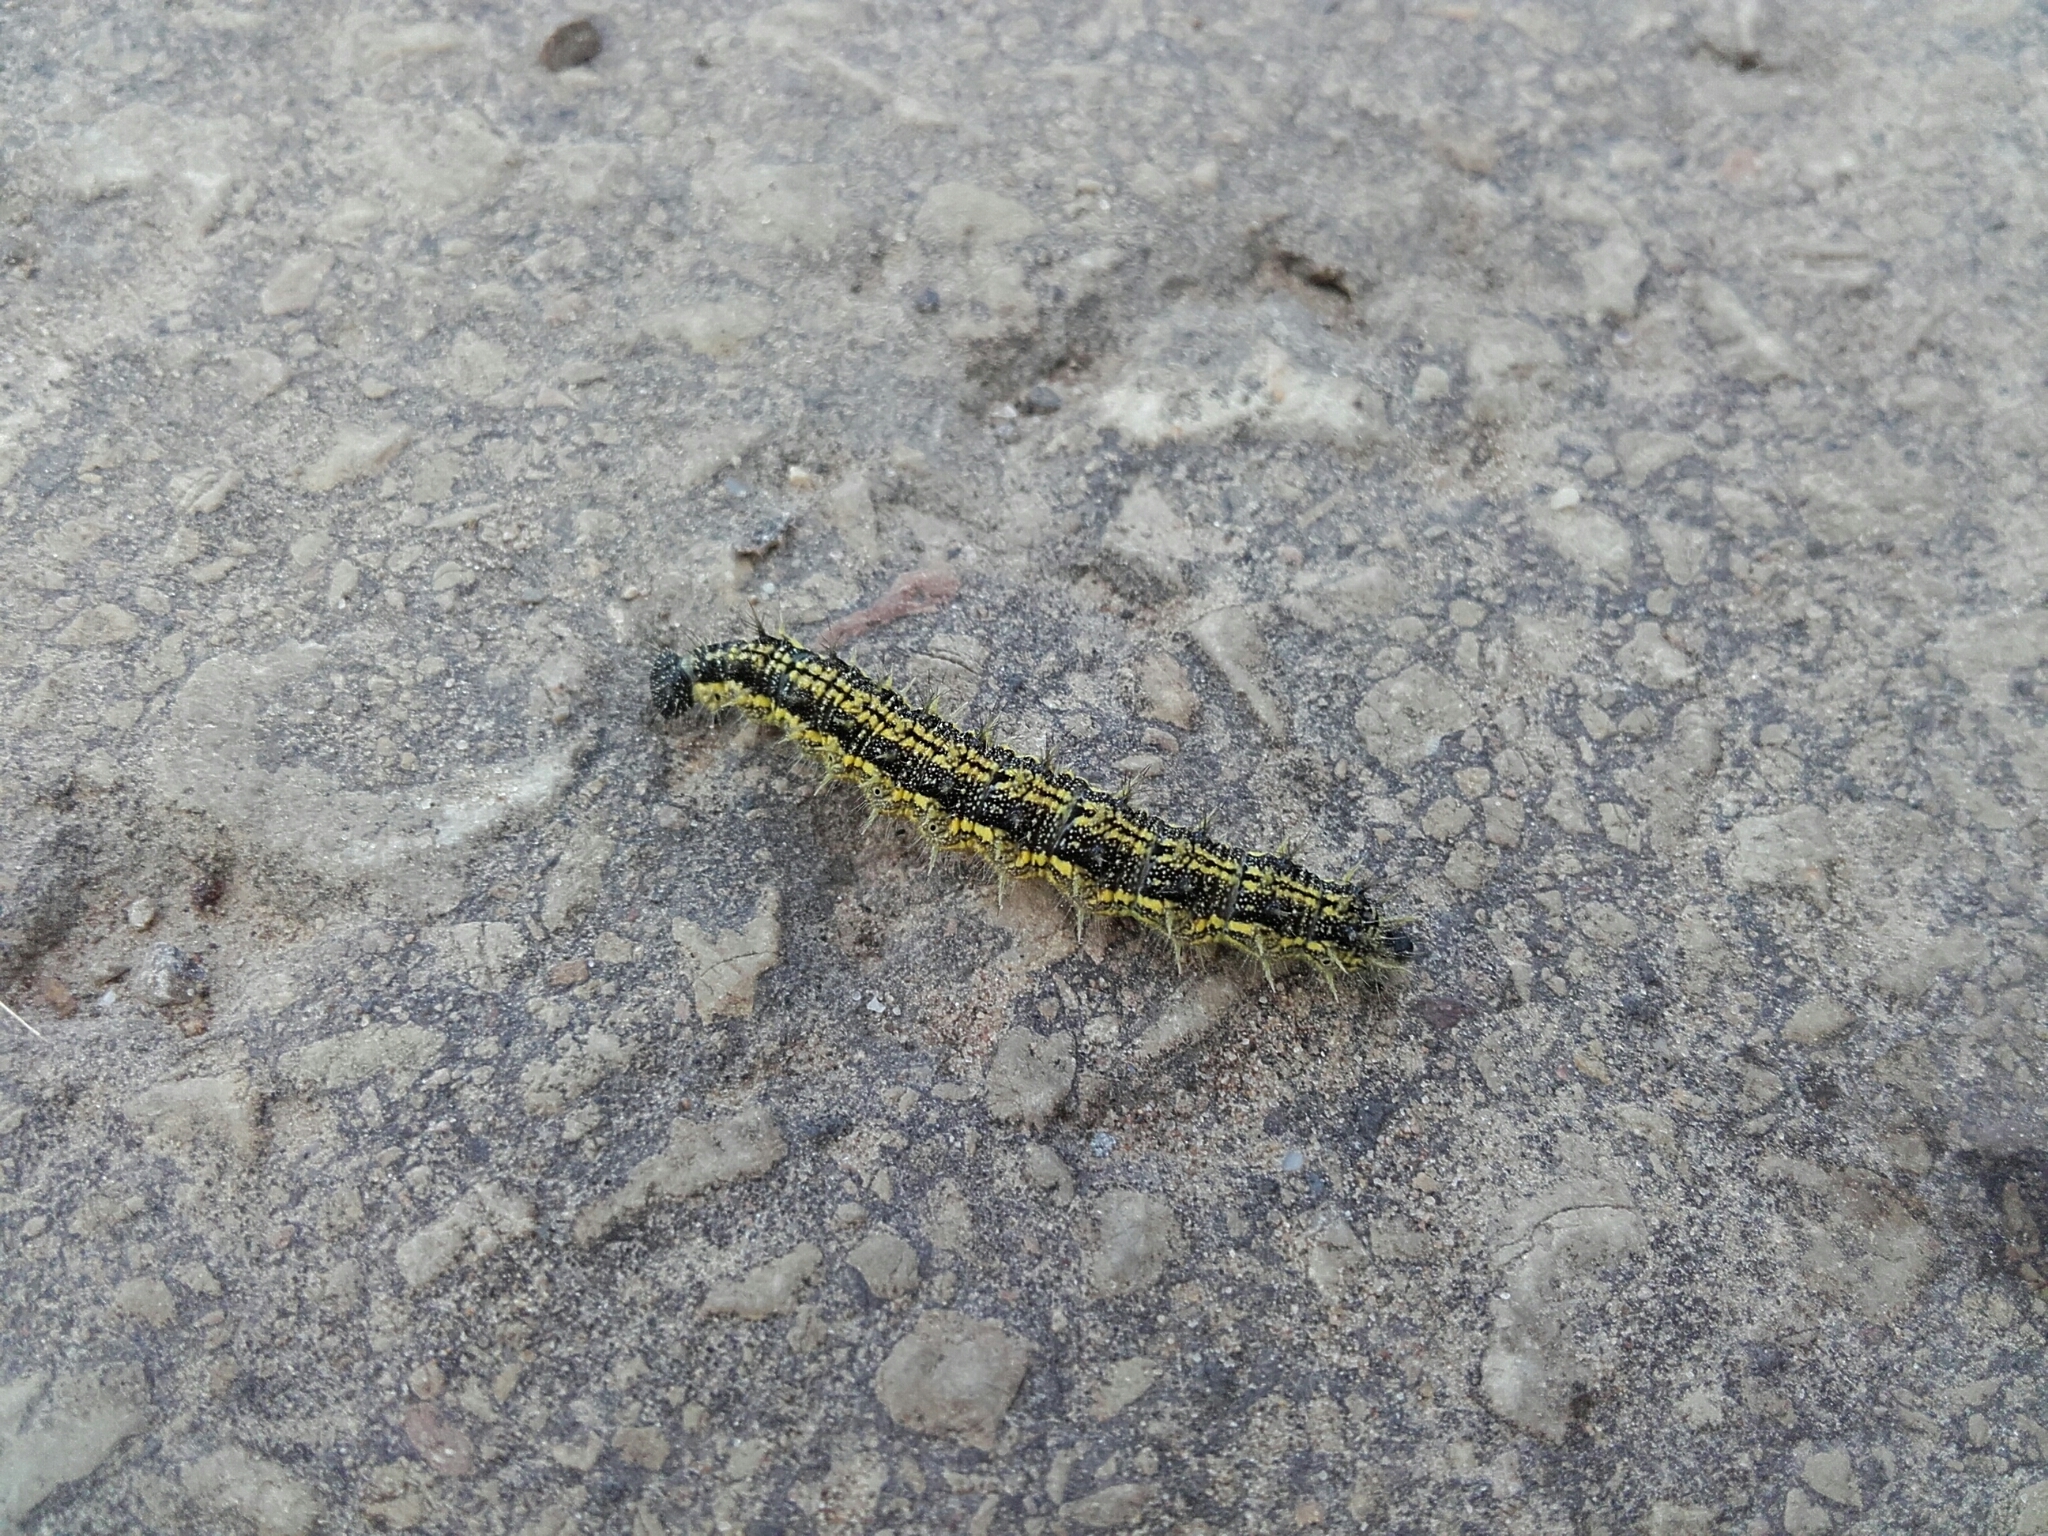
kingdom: Animalia
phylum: Arthropoda
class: Insecta
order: Lepidoptera
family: Nymphalidae
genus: Aglais
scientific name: Aglais urticae
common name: Small tortoiseshell
